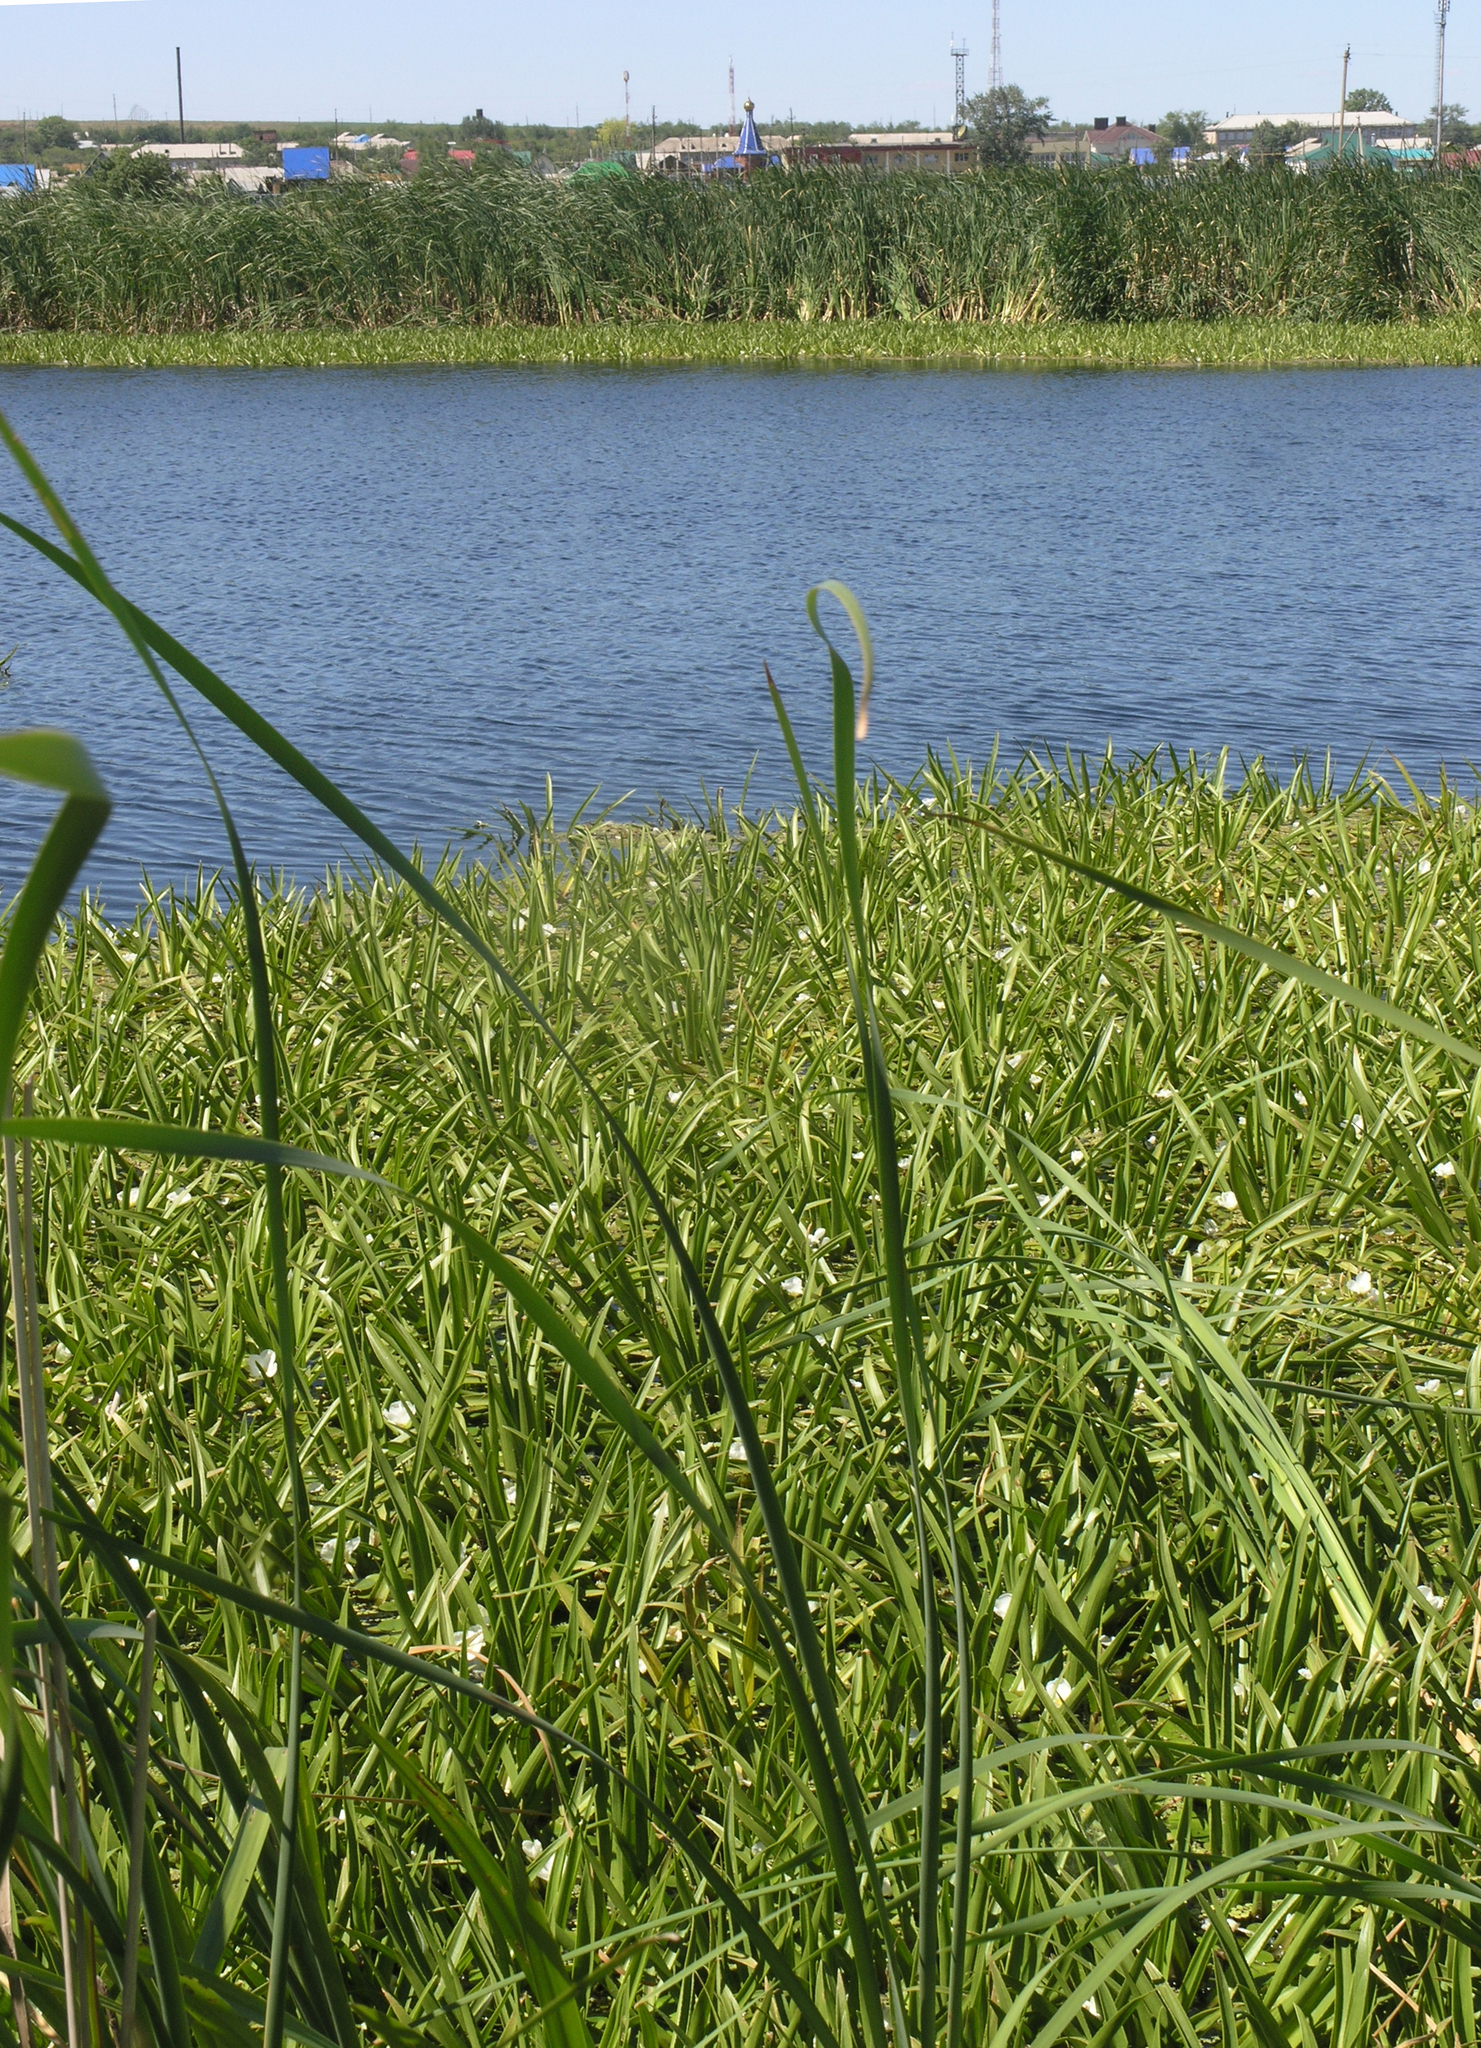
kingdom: Plantae
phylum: Tracheophyta
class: Liliopsida
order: Alismatales
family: Hydrocharitaceae
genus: Stratiotes
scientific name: Stratiotes aloides
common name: Water-soldier
